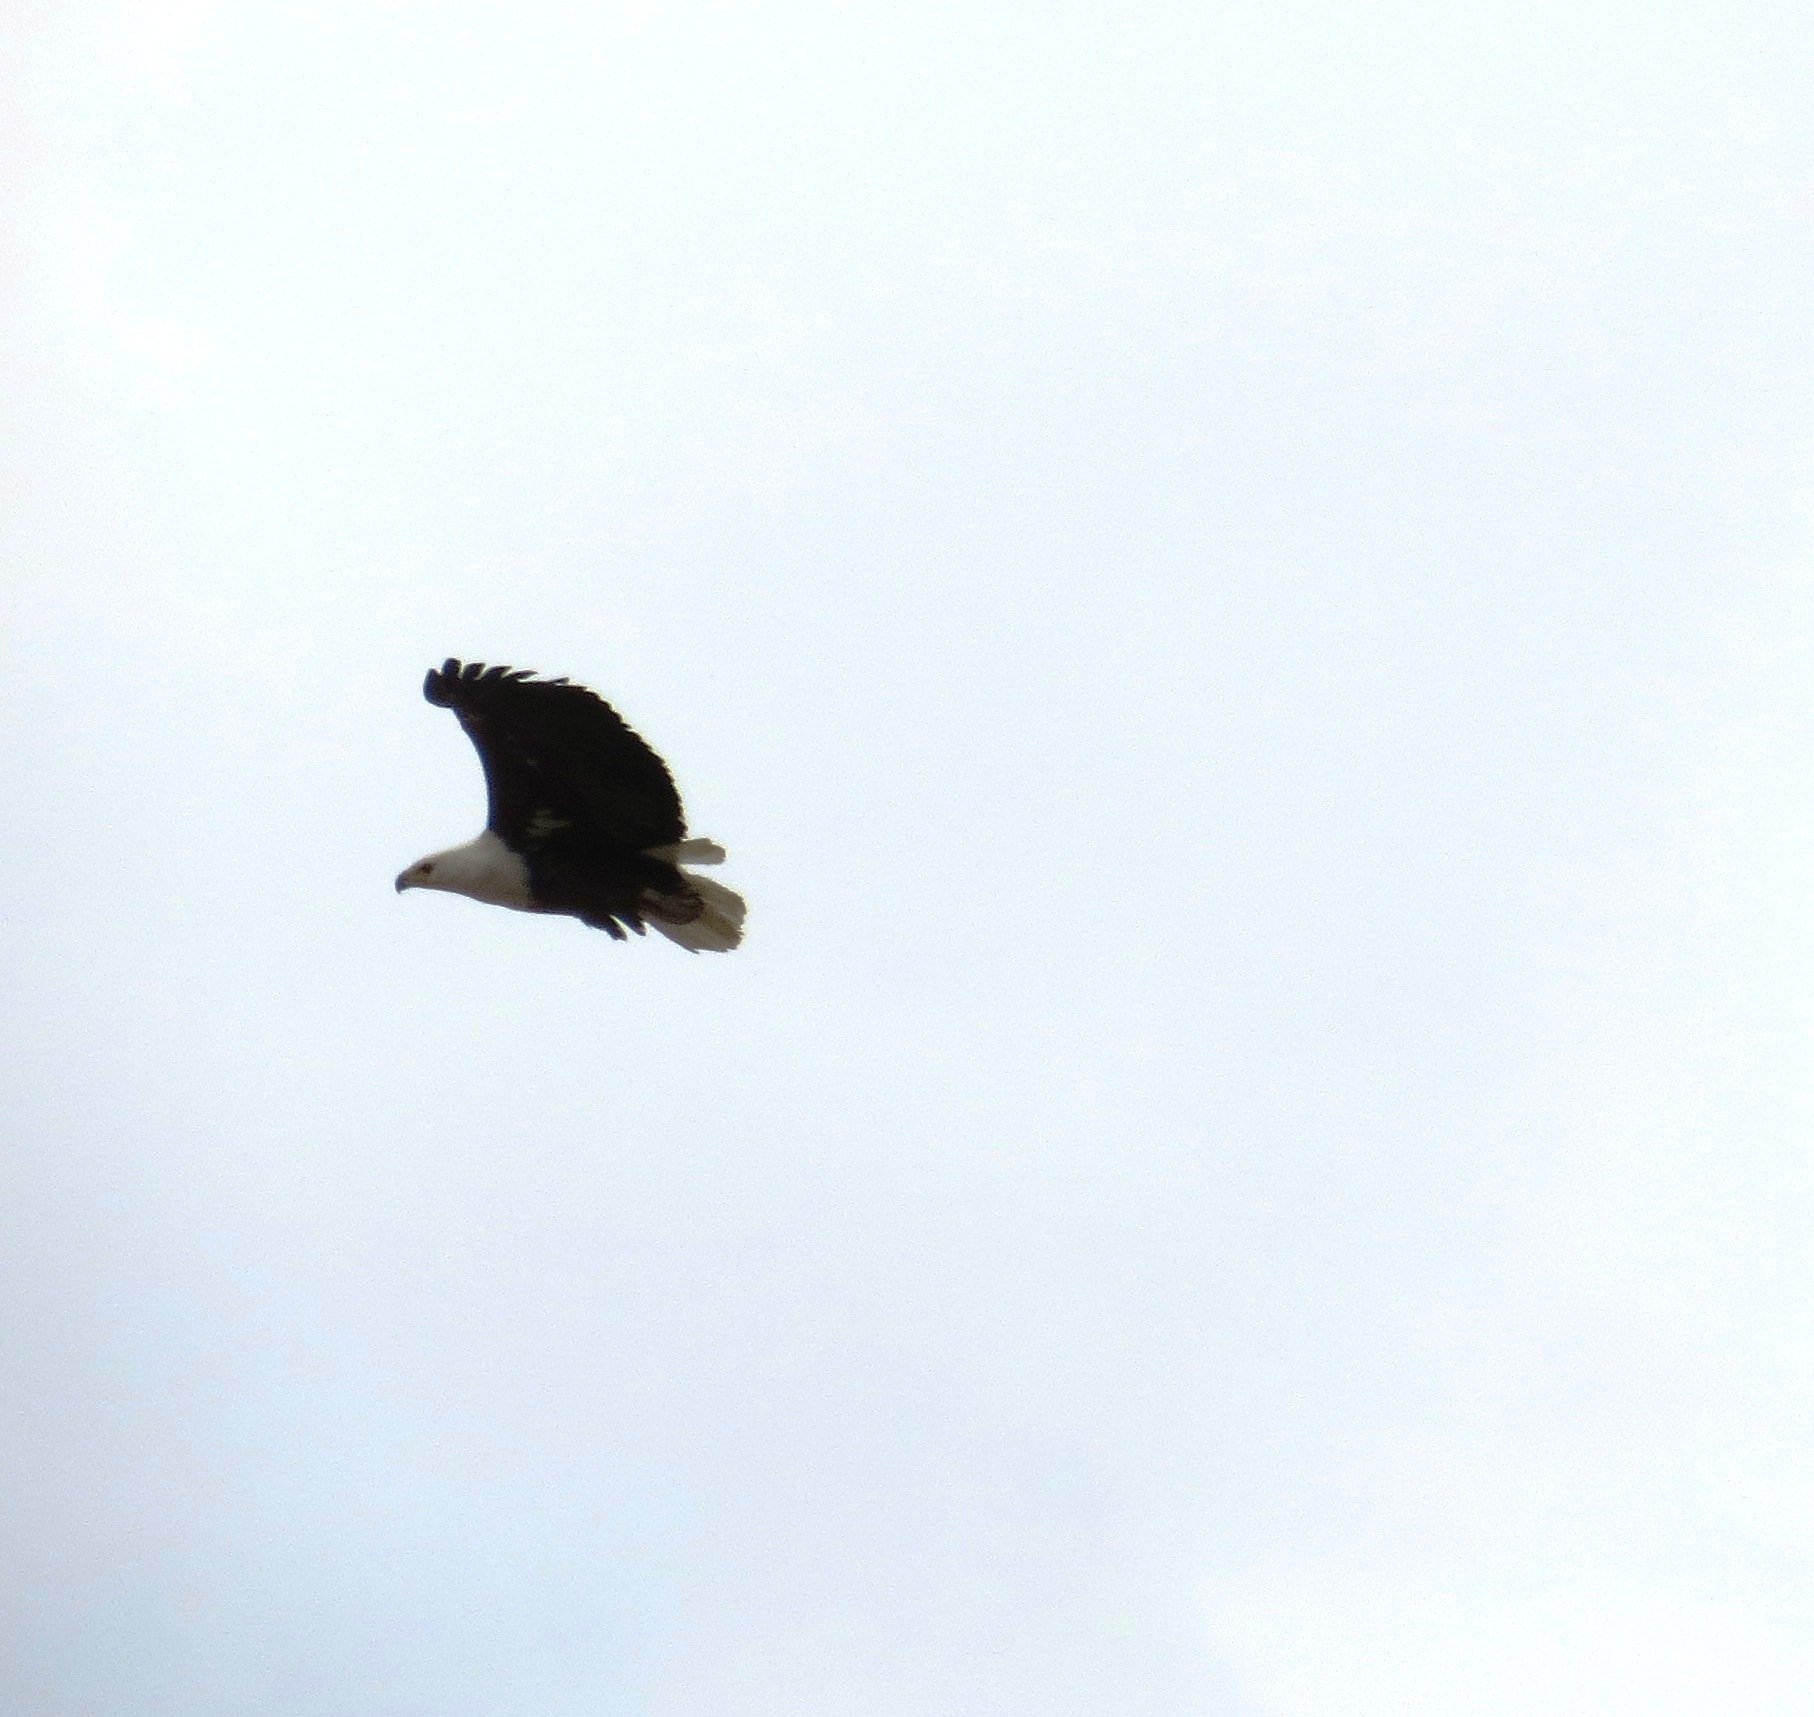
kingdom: Animalia
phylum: Chordata
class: Aves
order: Accipitriformes
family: Accipitridae
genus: Haliaeetus
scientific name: Haliaeetus vocifer
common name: African fish eagle
